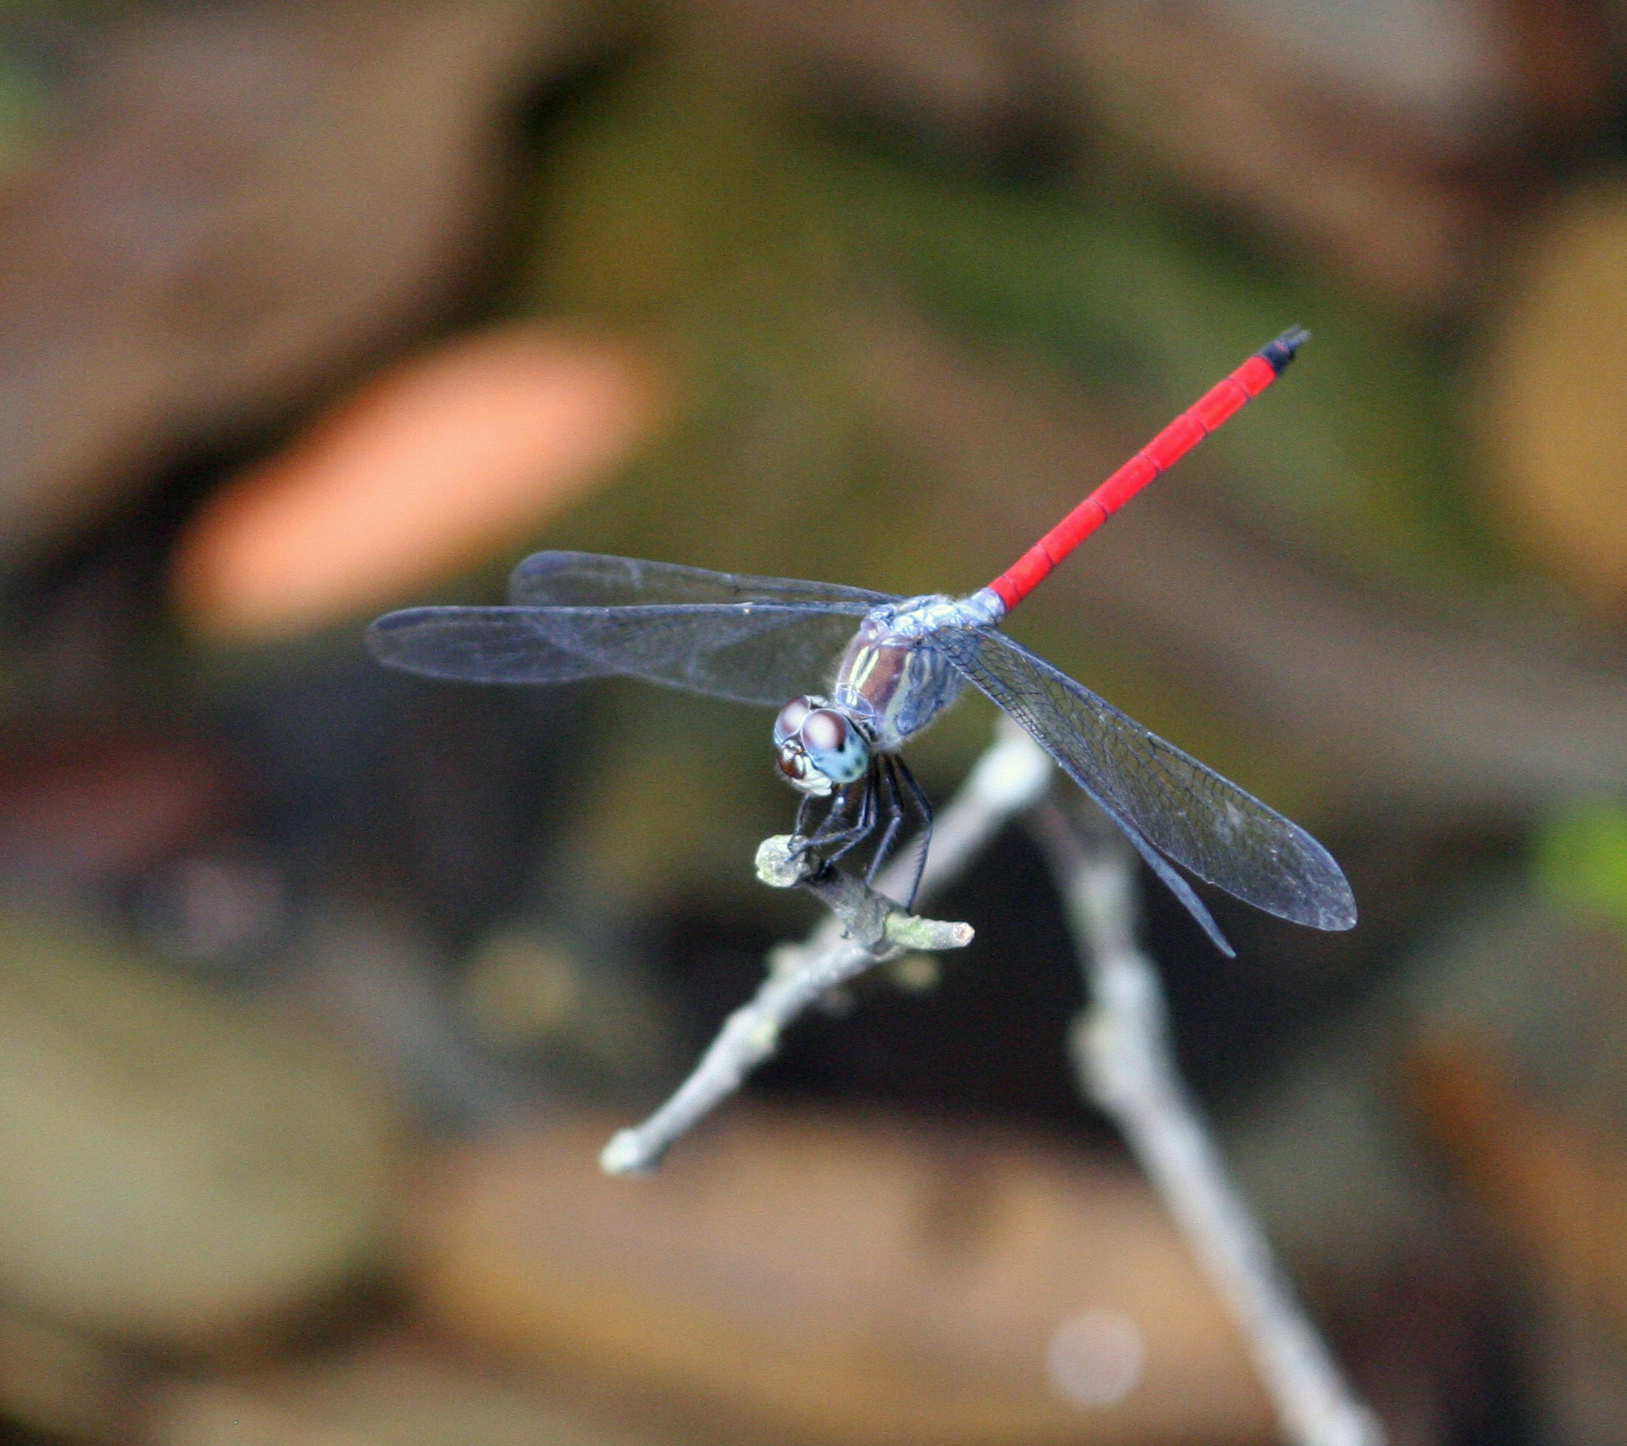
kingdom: Animalia
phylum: Arthropoda
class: Insecta
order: Odonata
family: Libellulidae
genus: Lathrecista
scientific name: Lathrecista asiatica
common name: Scarlet grenadier
